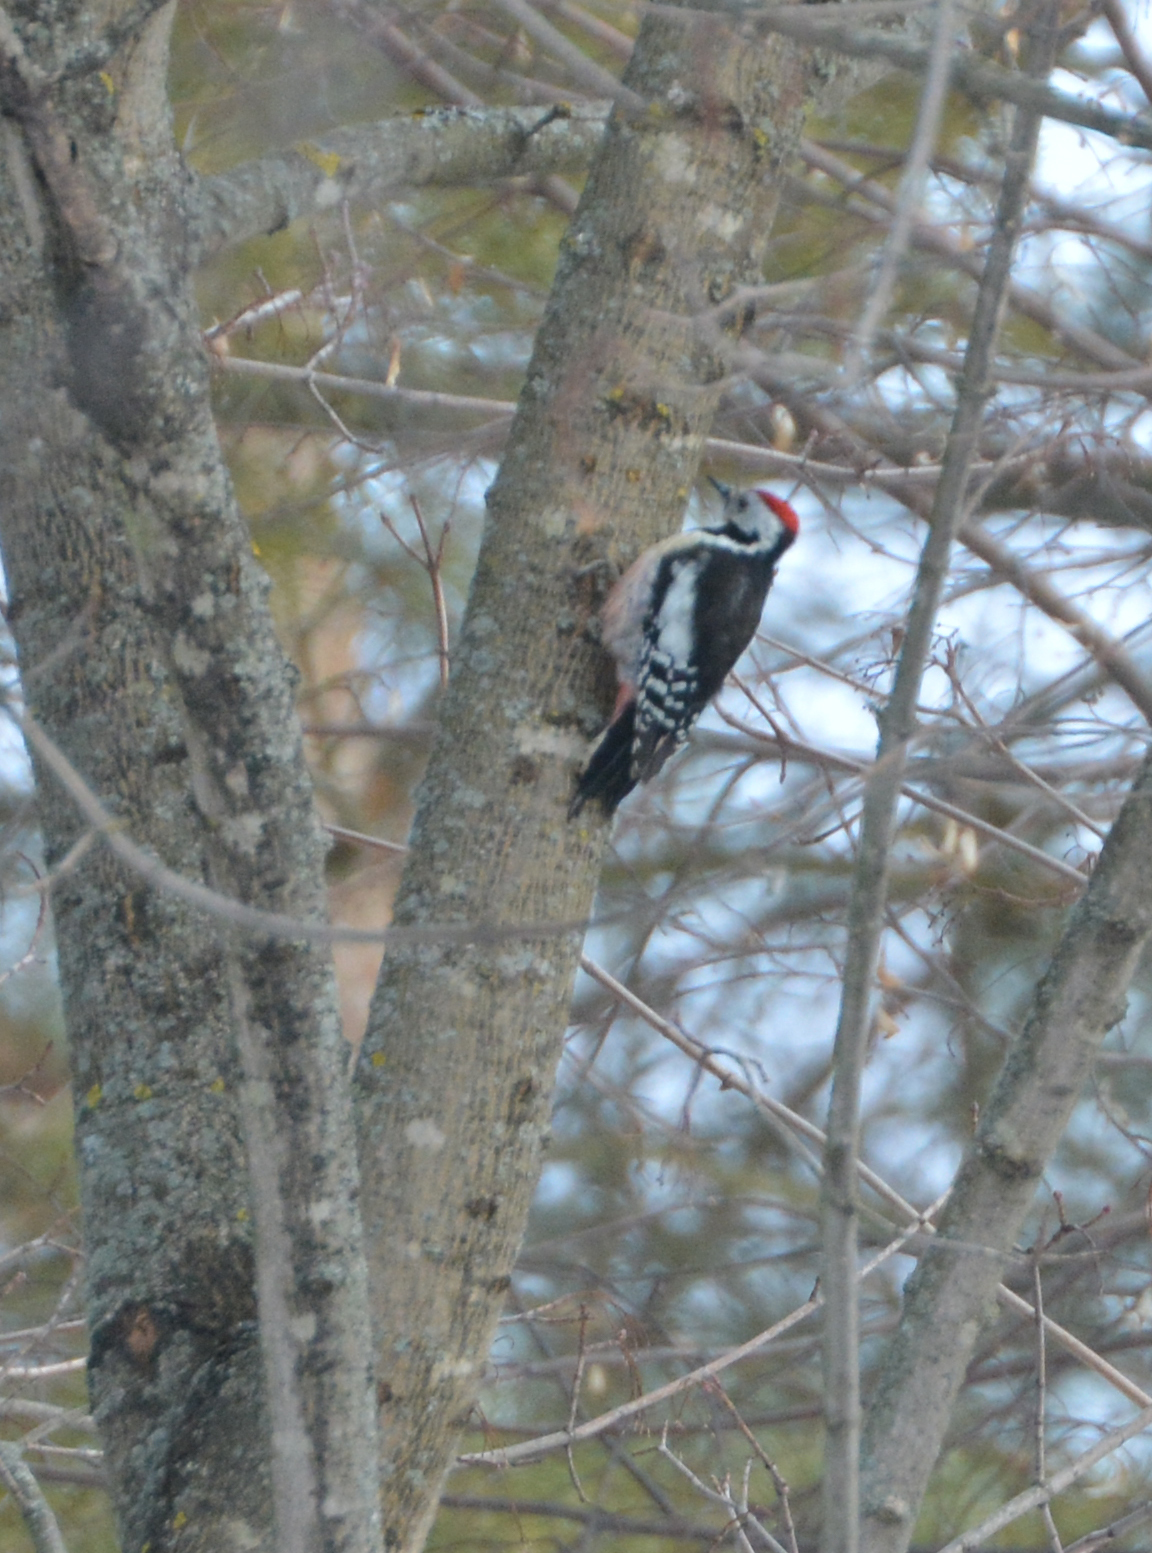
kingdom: Animalia
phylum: Chordata
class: Aves
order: Piciformes
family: Picidae
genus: Dendrocoptes
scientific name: Dendrocoptes medius
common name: Middle spotted woodpecker
